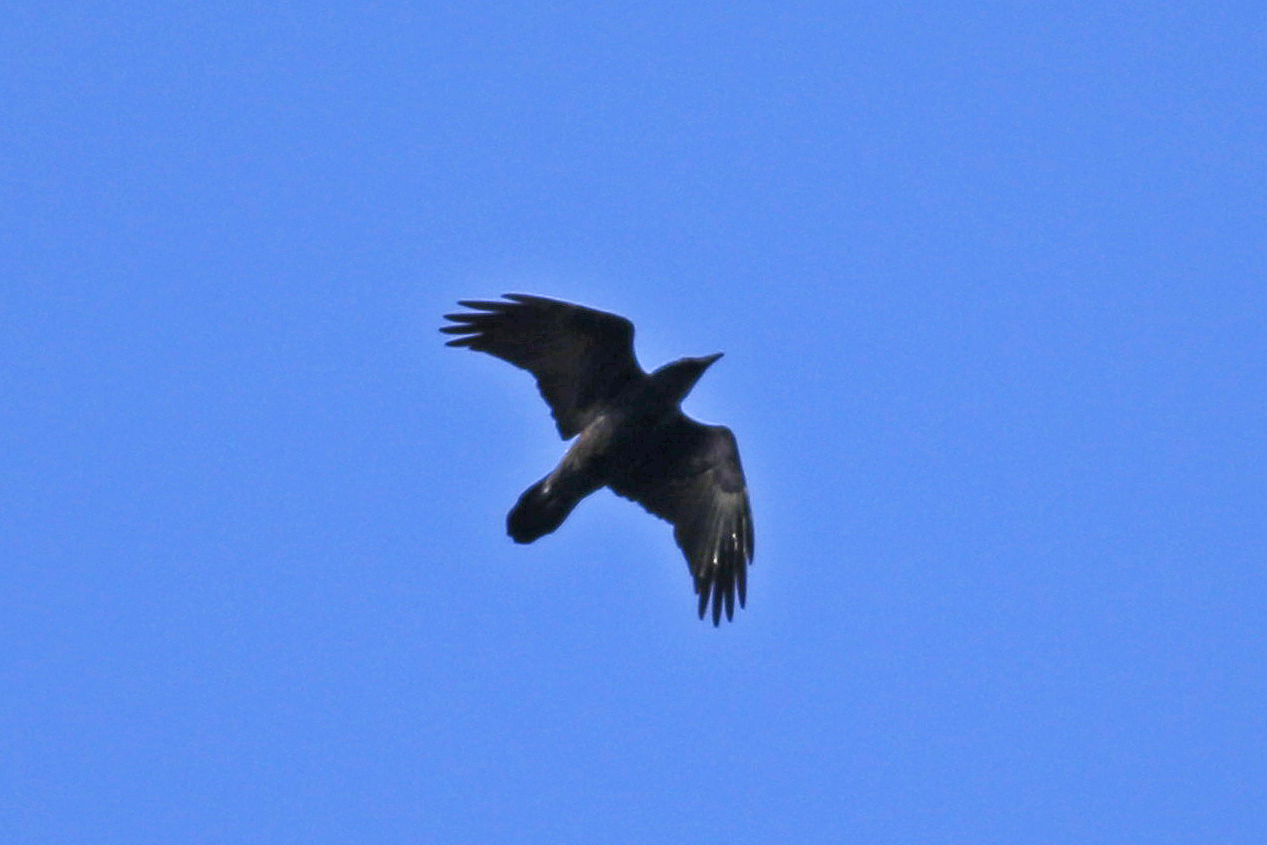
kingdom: Animalia
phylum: Chordata
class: Aves
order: Passeriformes
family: Corvidae
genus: Corvus
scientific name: Corvus corax
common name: Common raven
